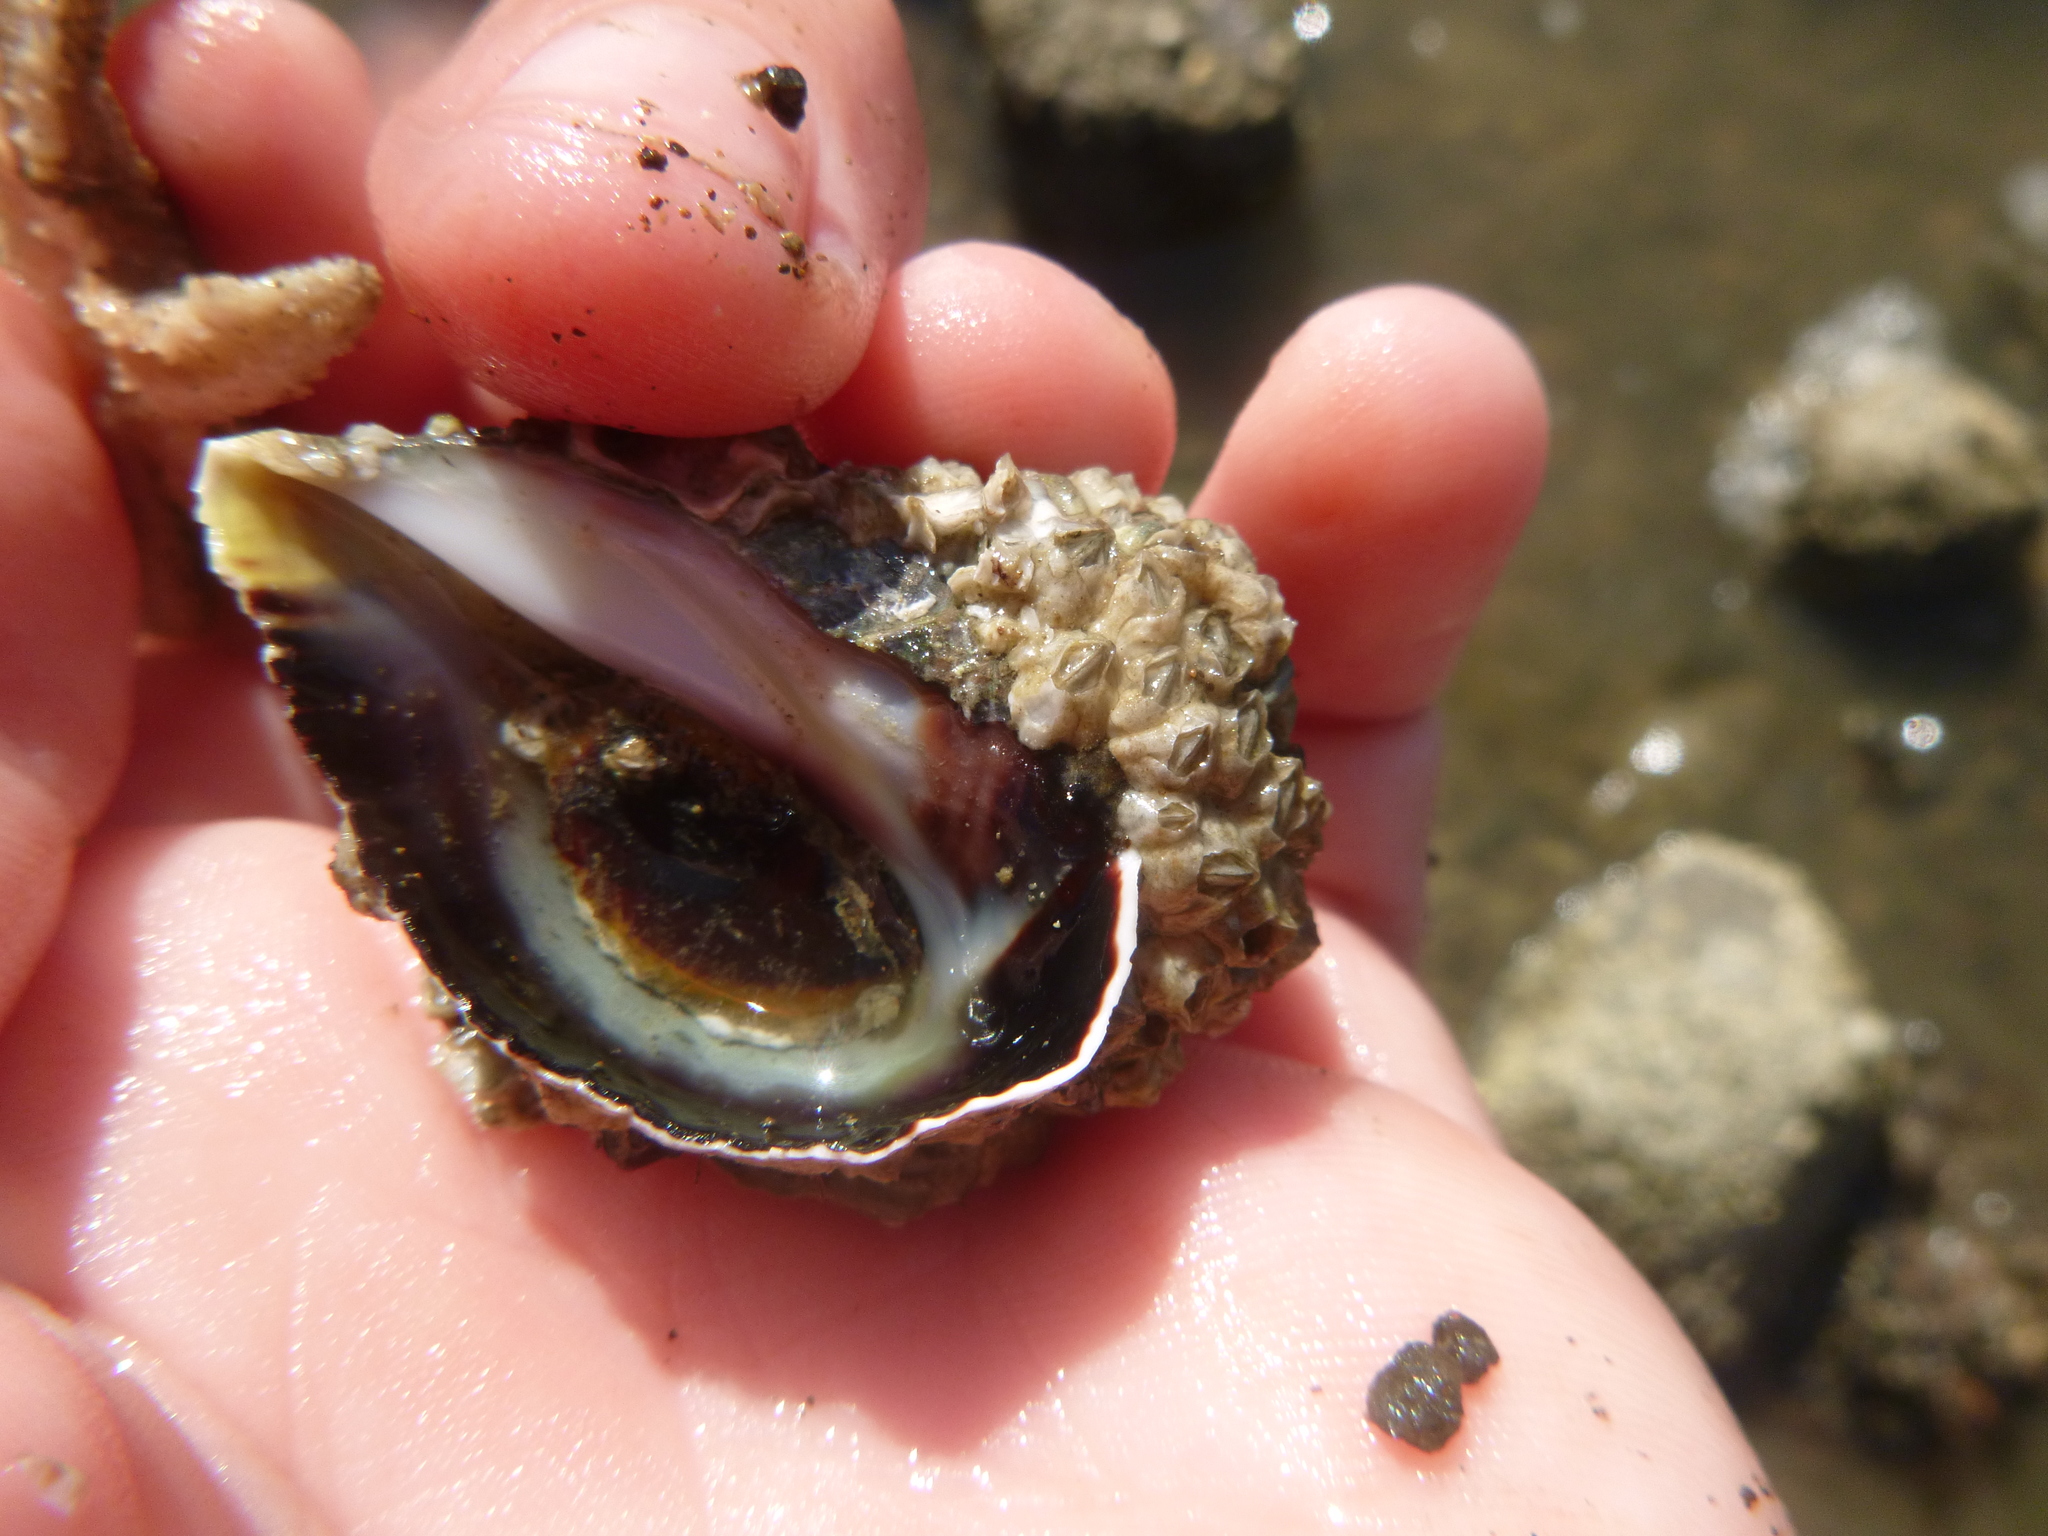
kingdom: Animalia
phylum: Mollusca
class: Gastropoda
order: Neogastropoda
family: Muricidae
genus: Haustrum
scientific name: Haustrum haustorium
